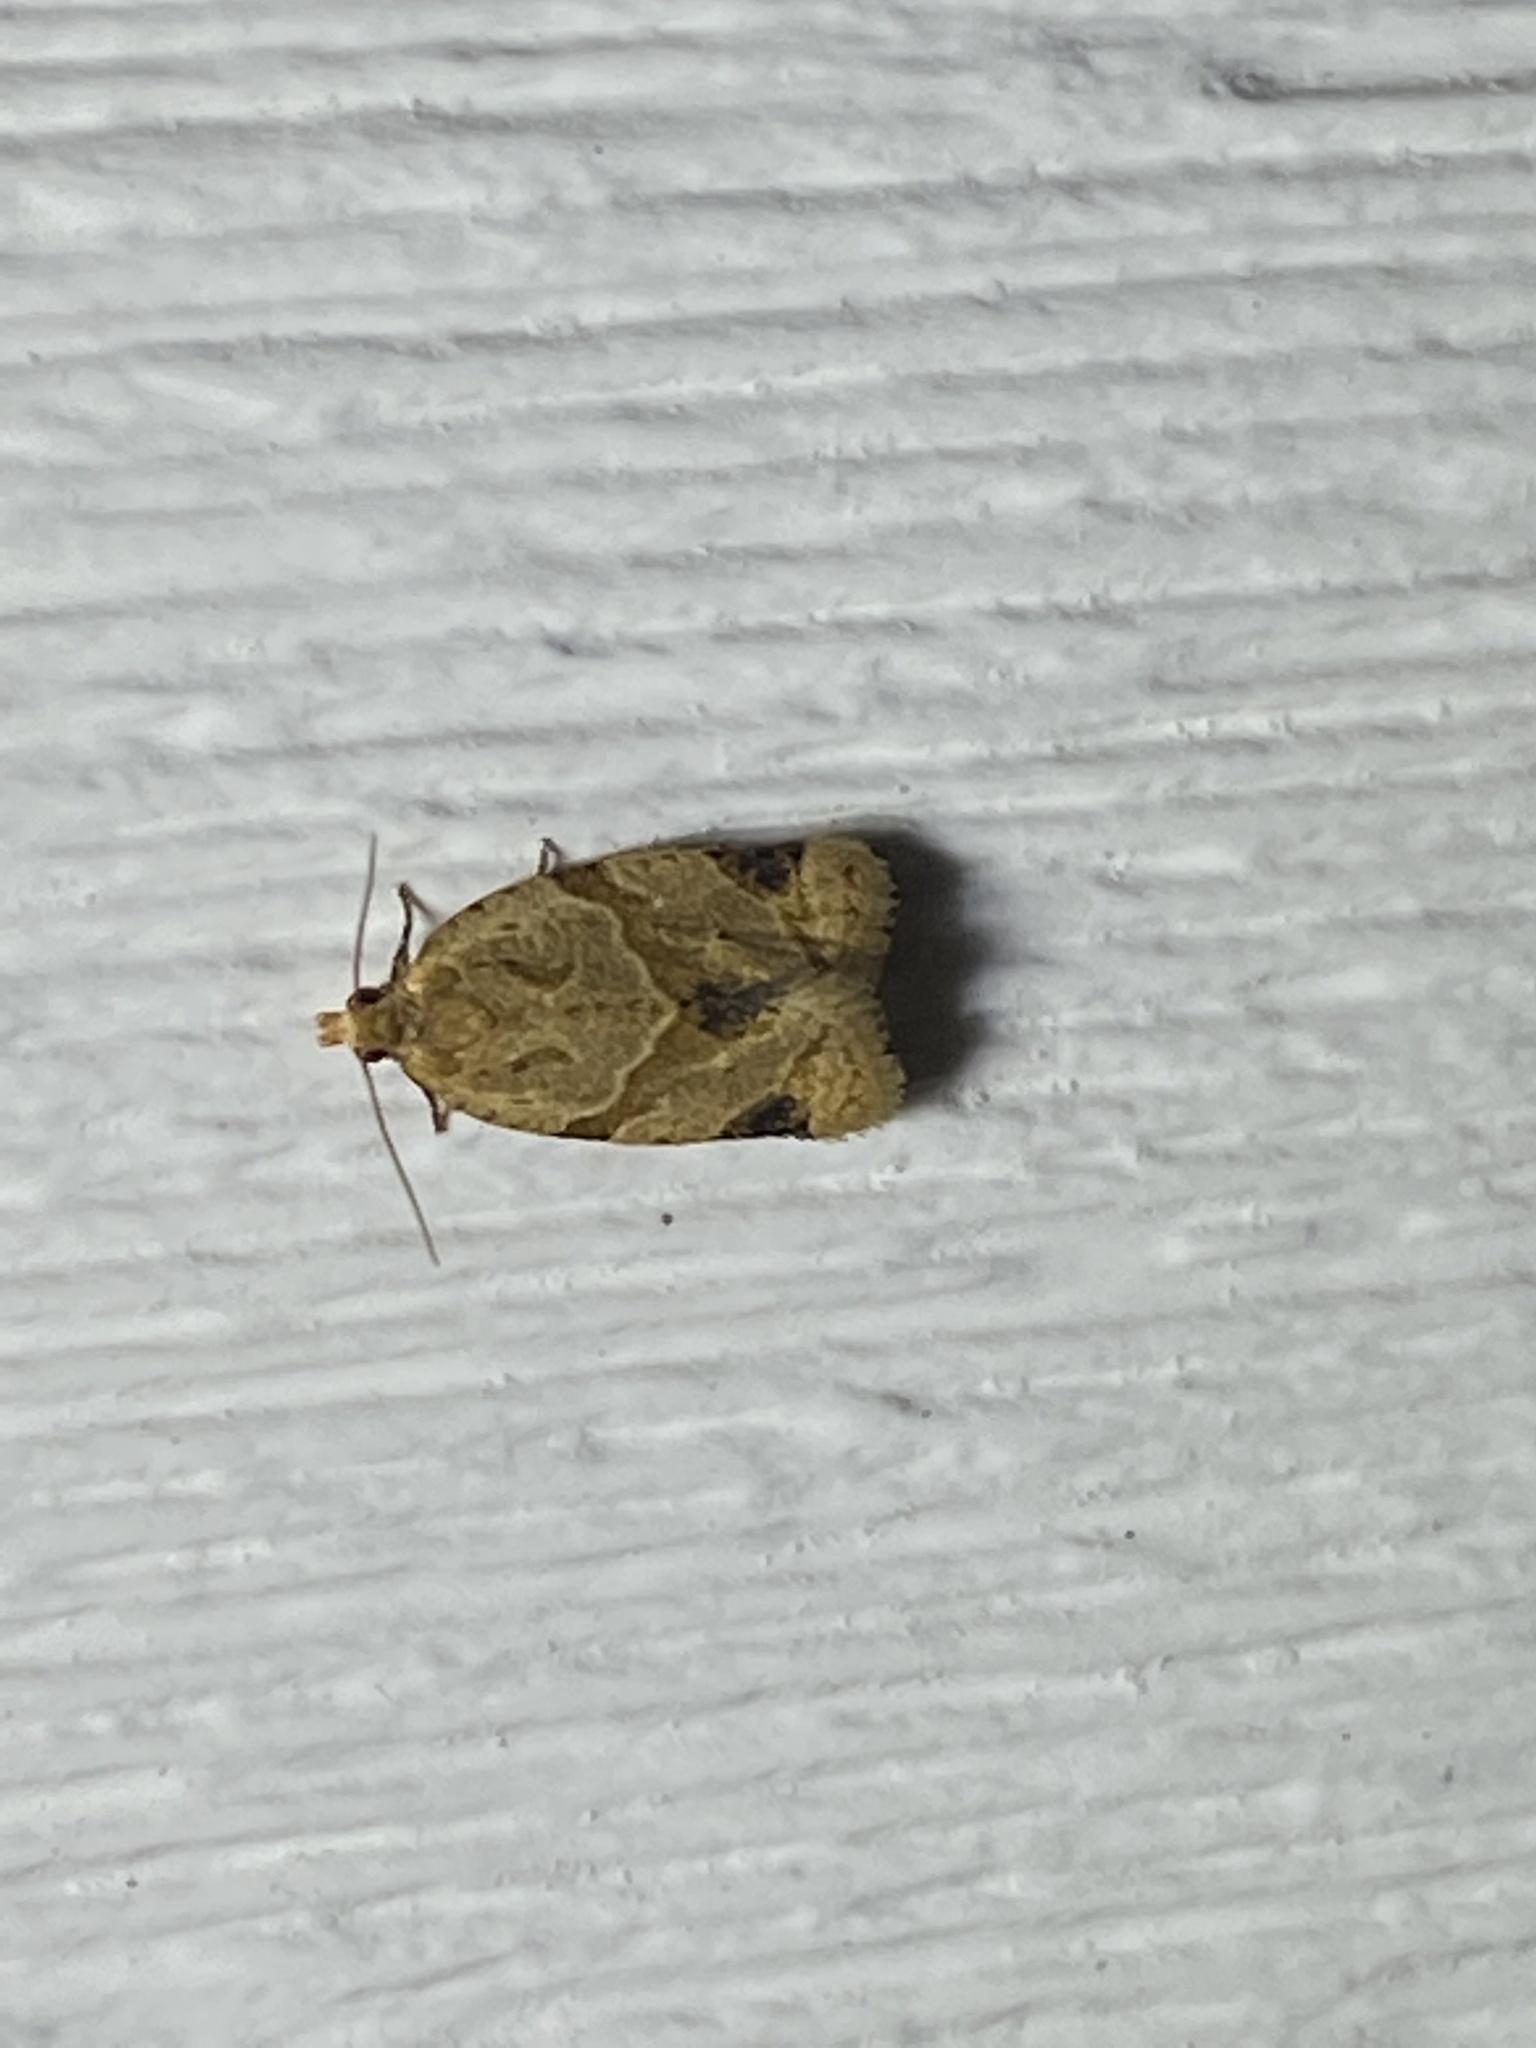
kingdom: Animalia
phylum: Arthropoda
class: Insecta
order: Lepidoptera
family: Tortricidae
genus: Clepsis
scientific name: Clepsis peritana
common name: Garden tortrix
